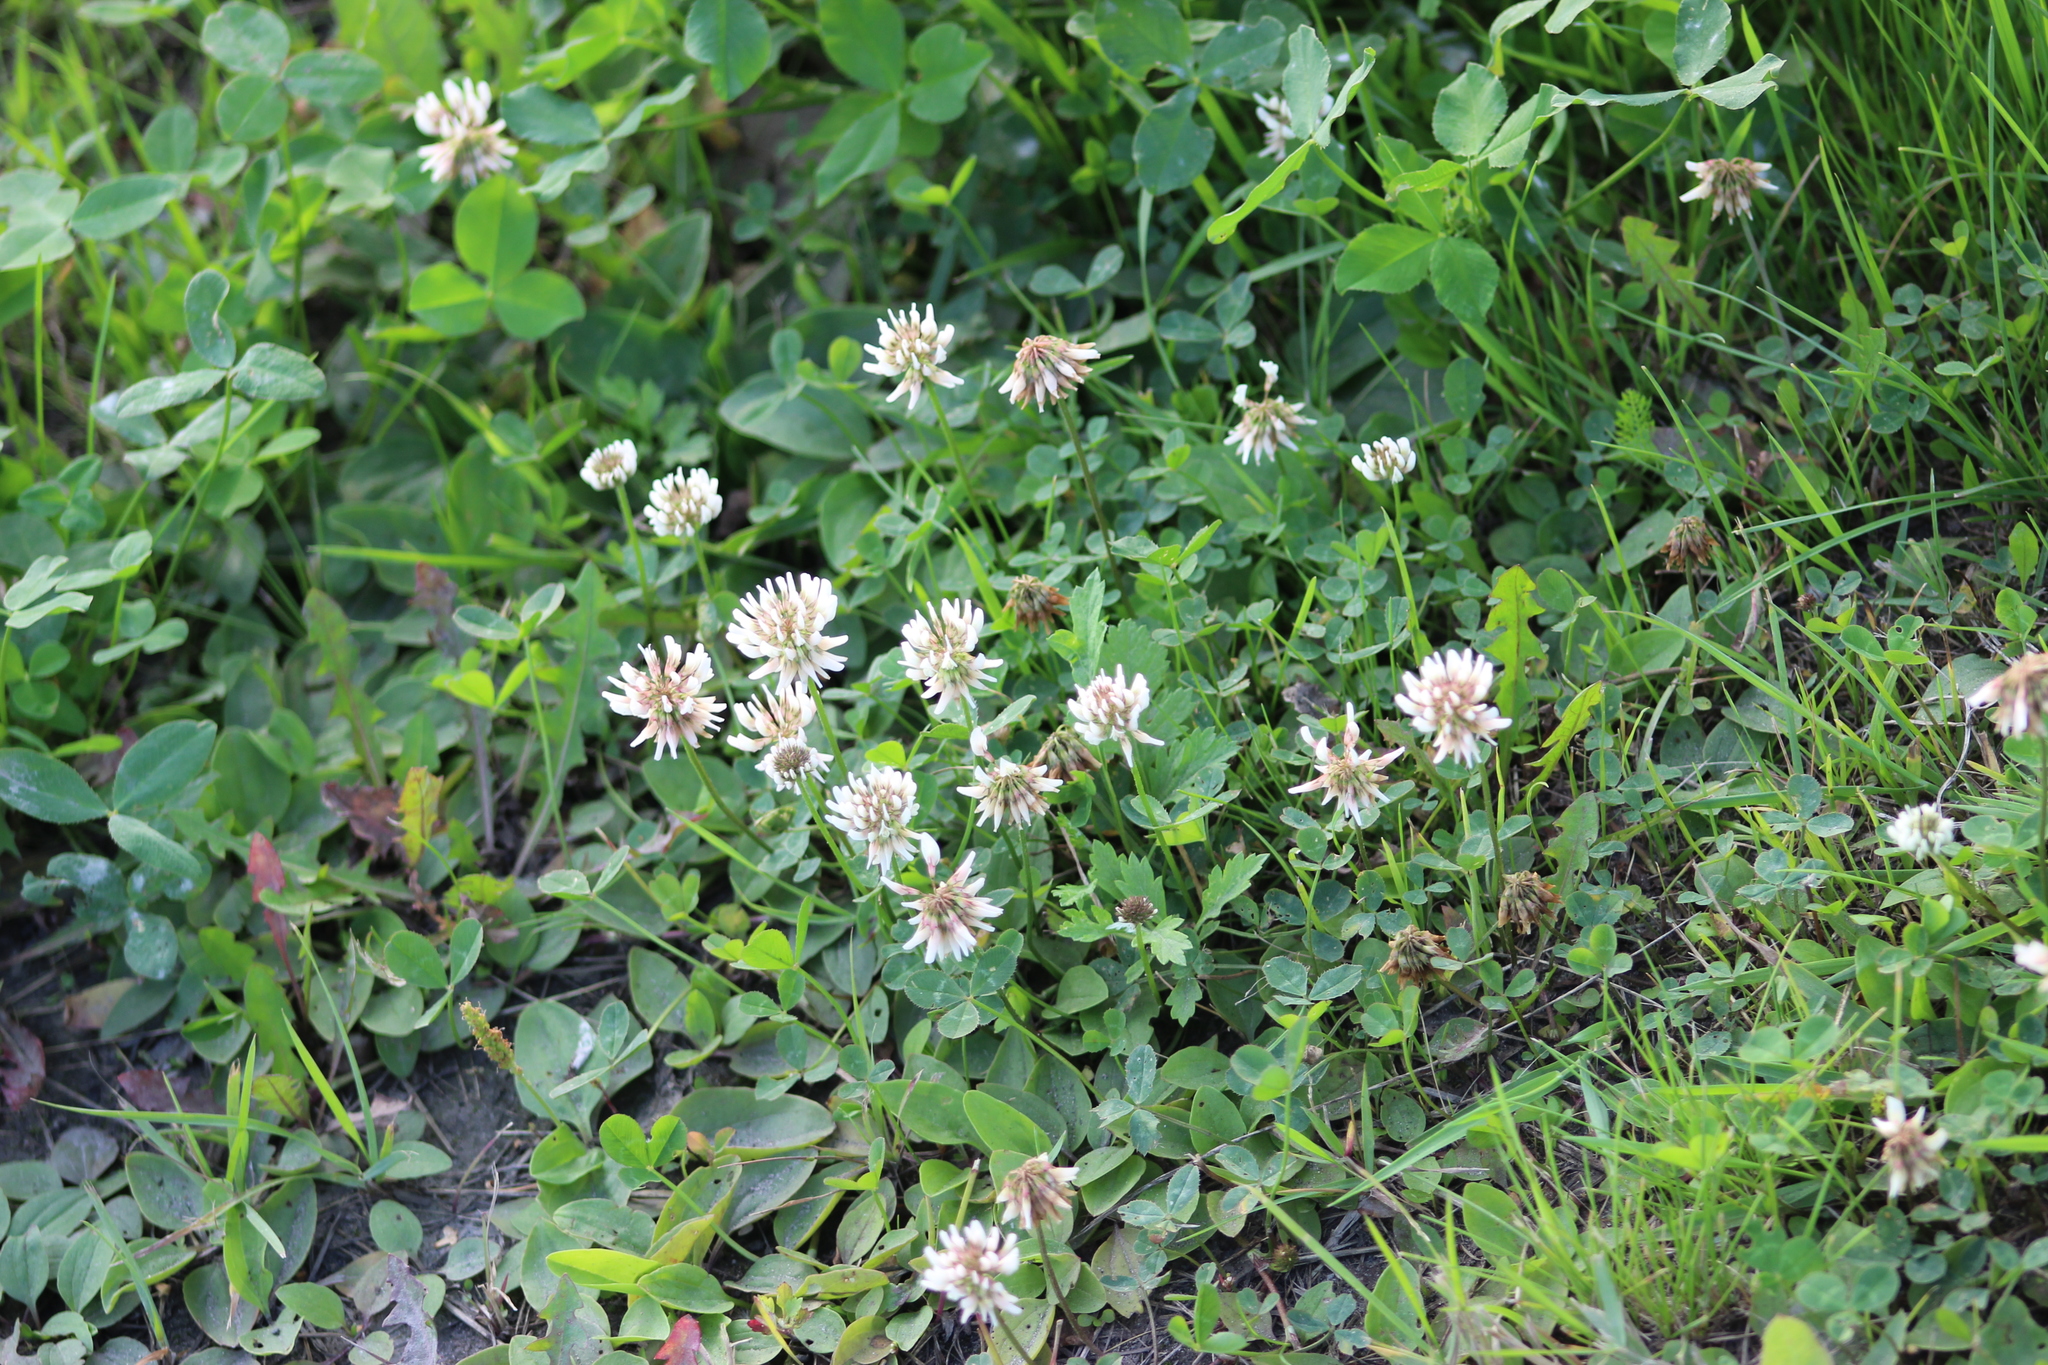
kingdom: Plantae
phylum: Tracheophyta
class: Magnoliopsida
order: Fabales
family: Fabaceae
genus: Trifolium
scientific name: Trifolium repens
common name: White clover
